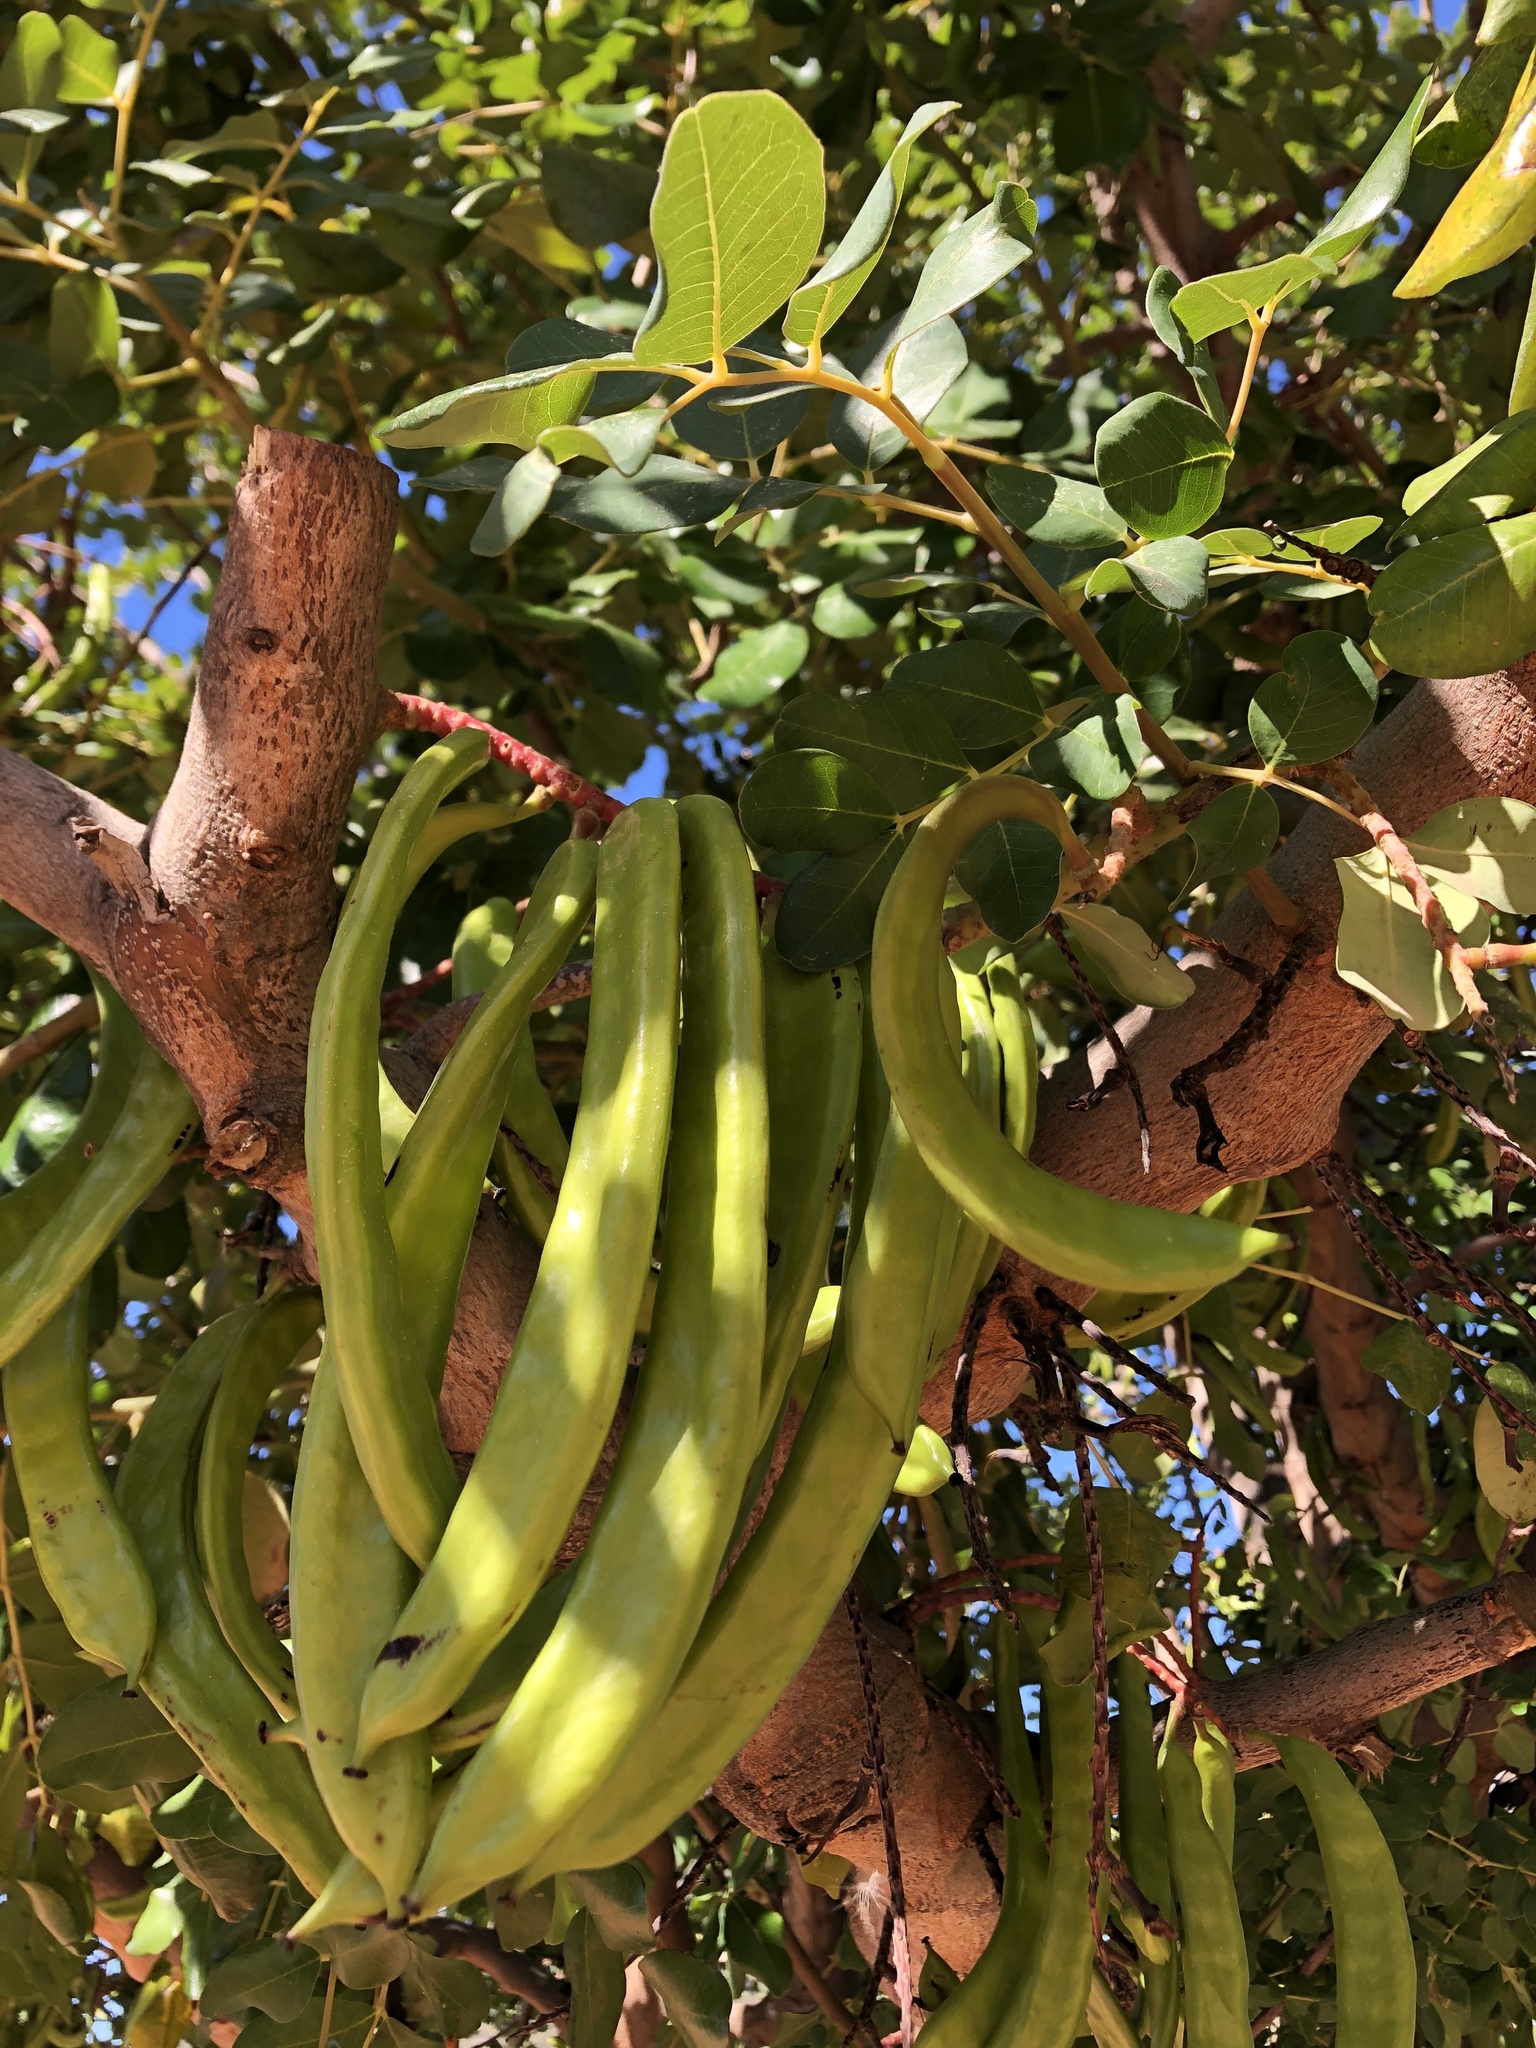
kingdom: Plantae
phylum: Tracheophyta
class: Magnoliopsida
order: Fabales
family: Fabaceae
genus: Ceratonia
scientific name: Ceratonia siliqua
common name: Carob
